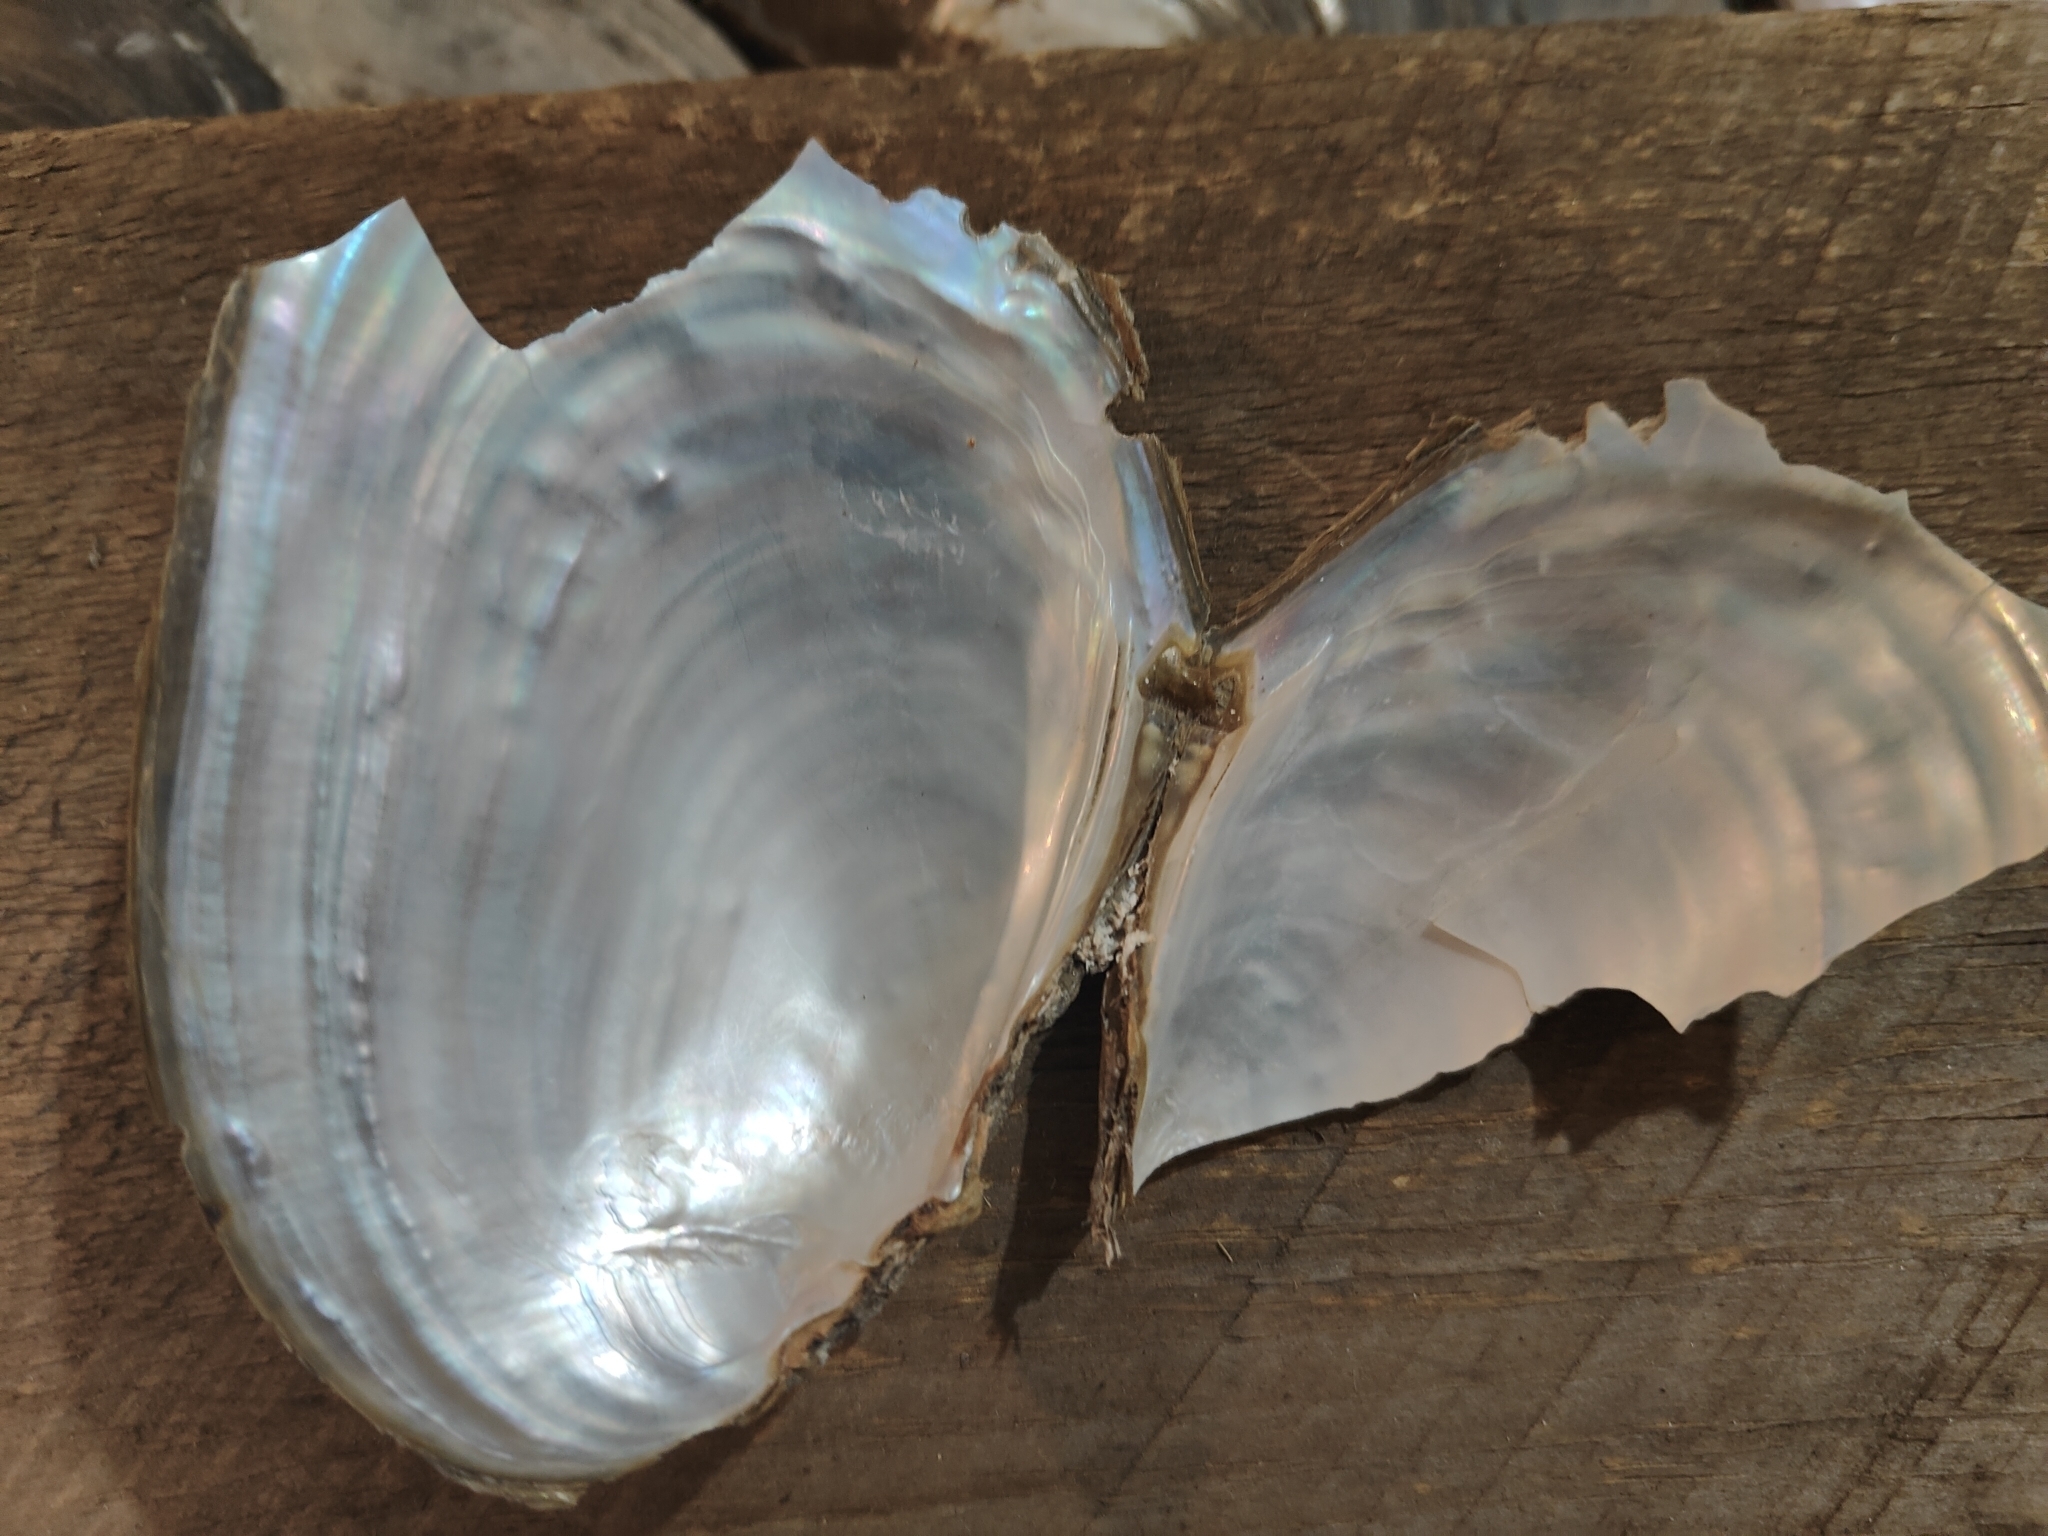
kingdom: Animalia
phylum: Mollusca
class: Bivalvia
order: Unionida
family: Unionidae
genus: Potamilus
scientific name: Potamilus fragilis
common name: Fragile papershell
